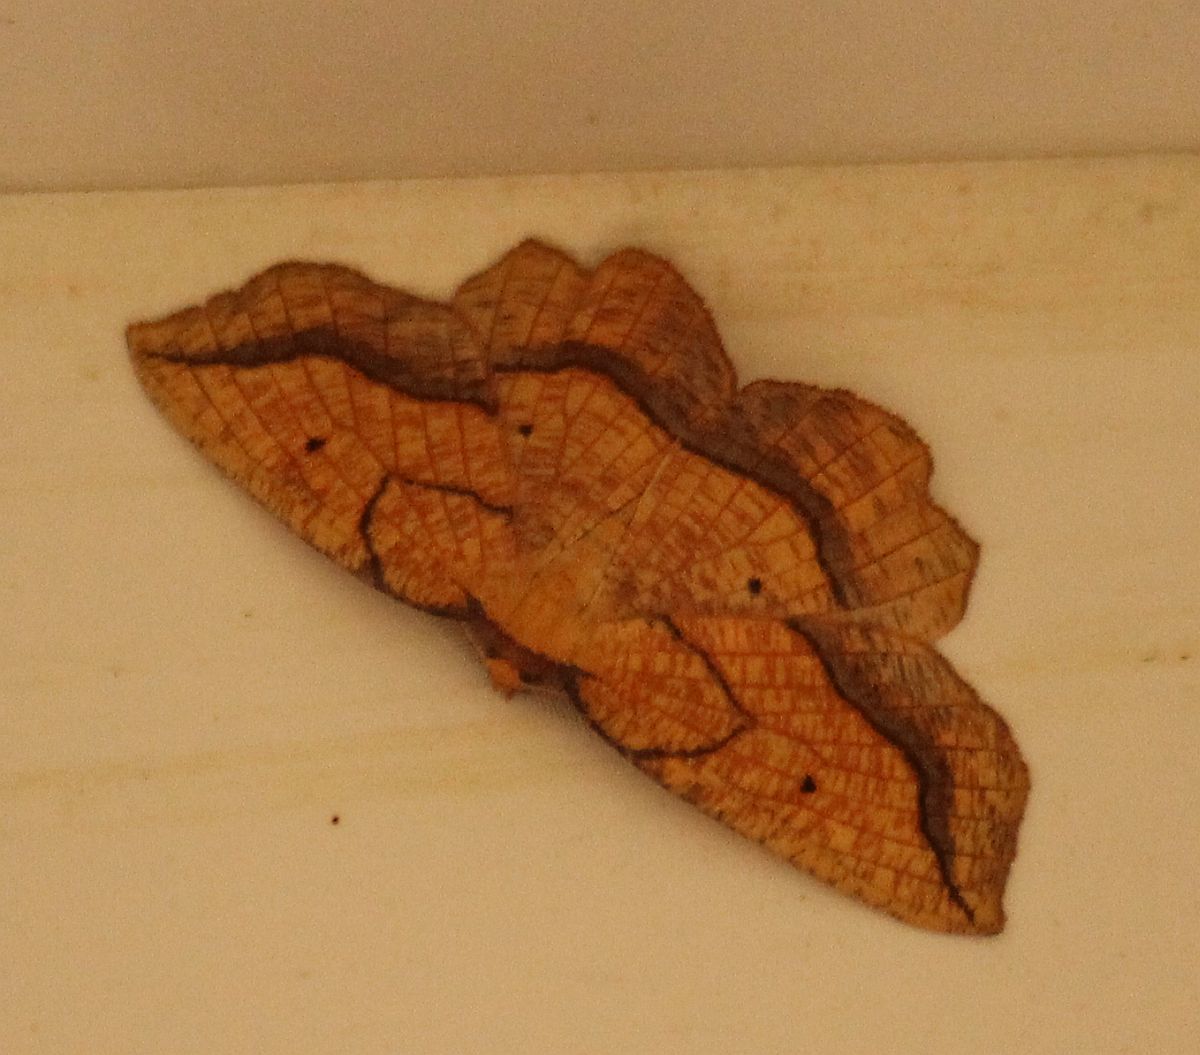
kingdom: Animalia
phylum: Arthropoda
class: Insecta
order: Lepidoptera
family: Geometridae
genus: Epione
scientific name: Epione repandaria
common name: Bordered beauty
